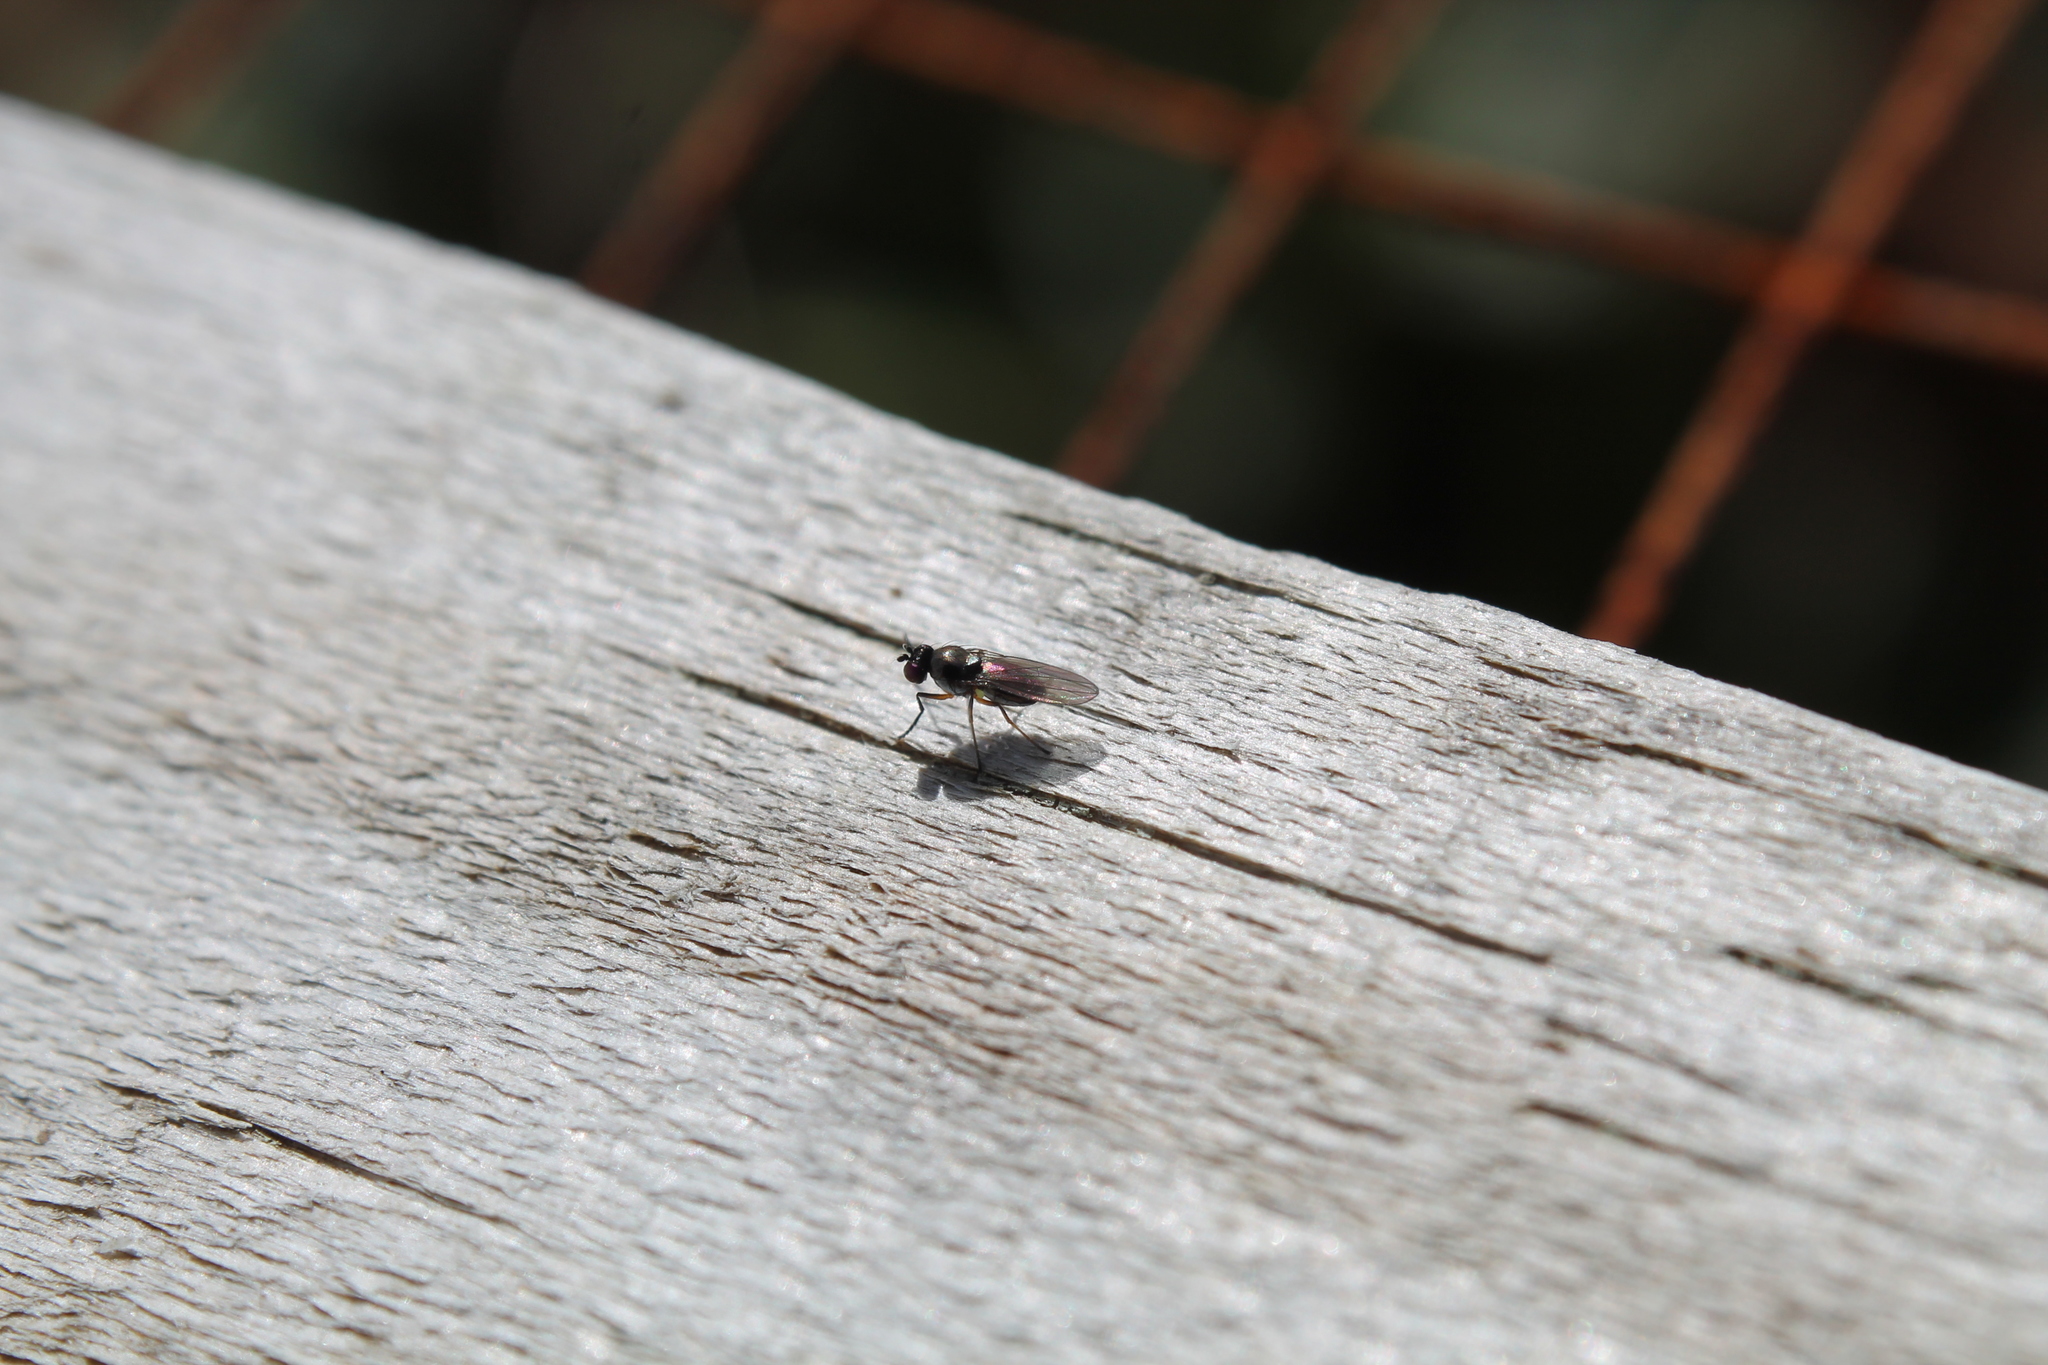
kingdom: Animalia
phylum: Arthropoda
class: Insecta
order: Diptera
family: Ephydridae
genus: Hydrellia
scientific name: Hydrellia tritici
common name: Shore fly
